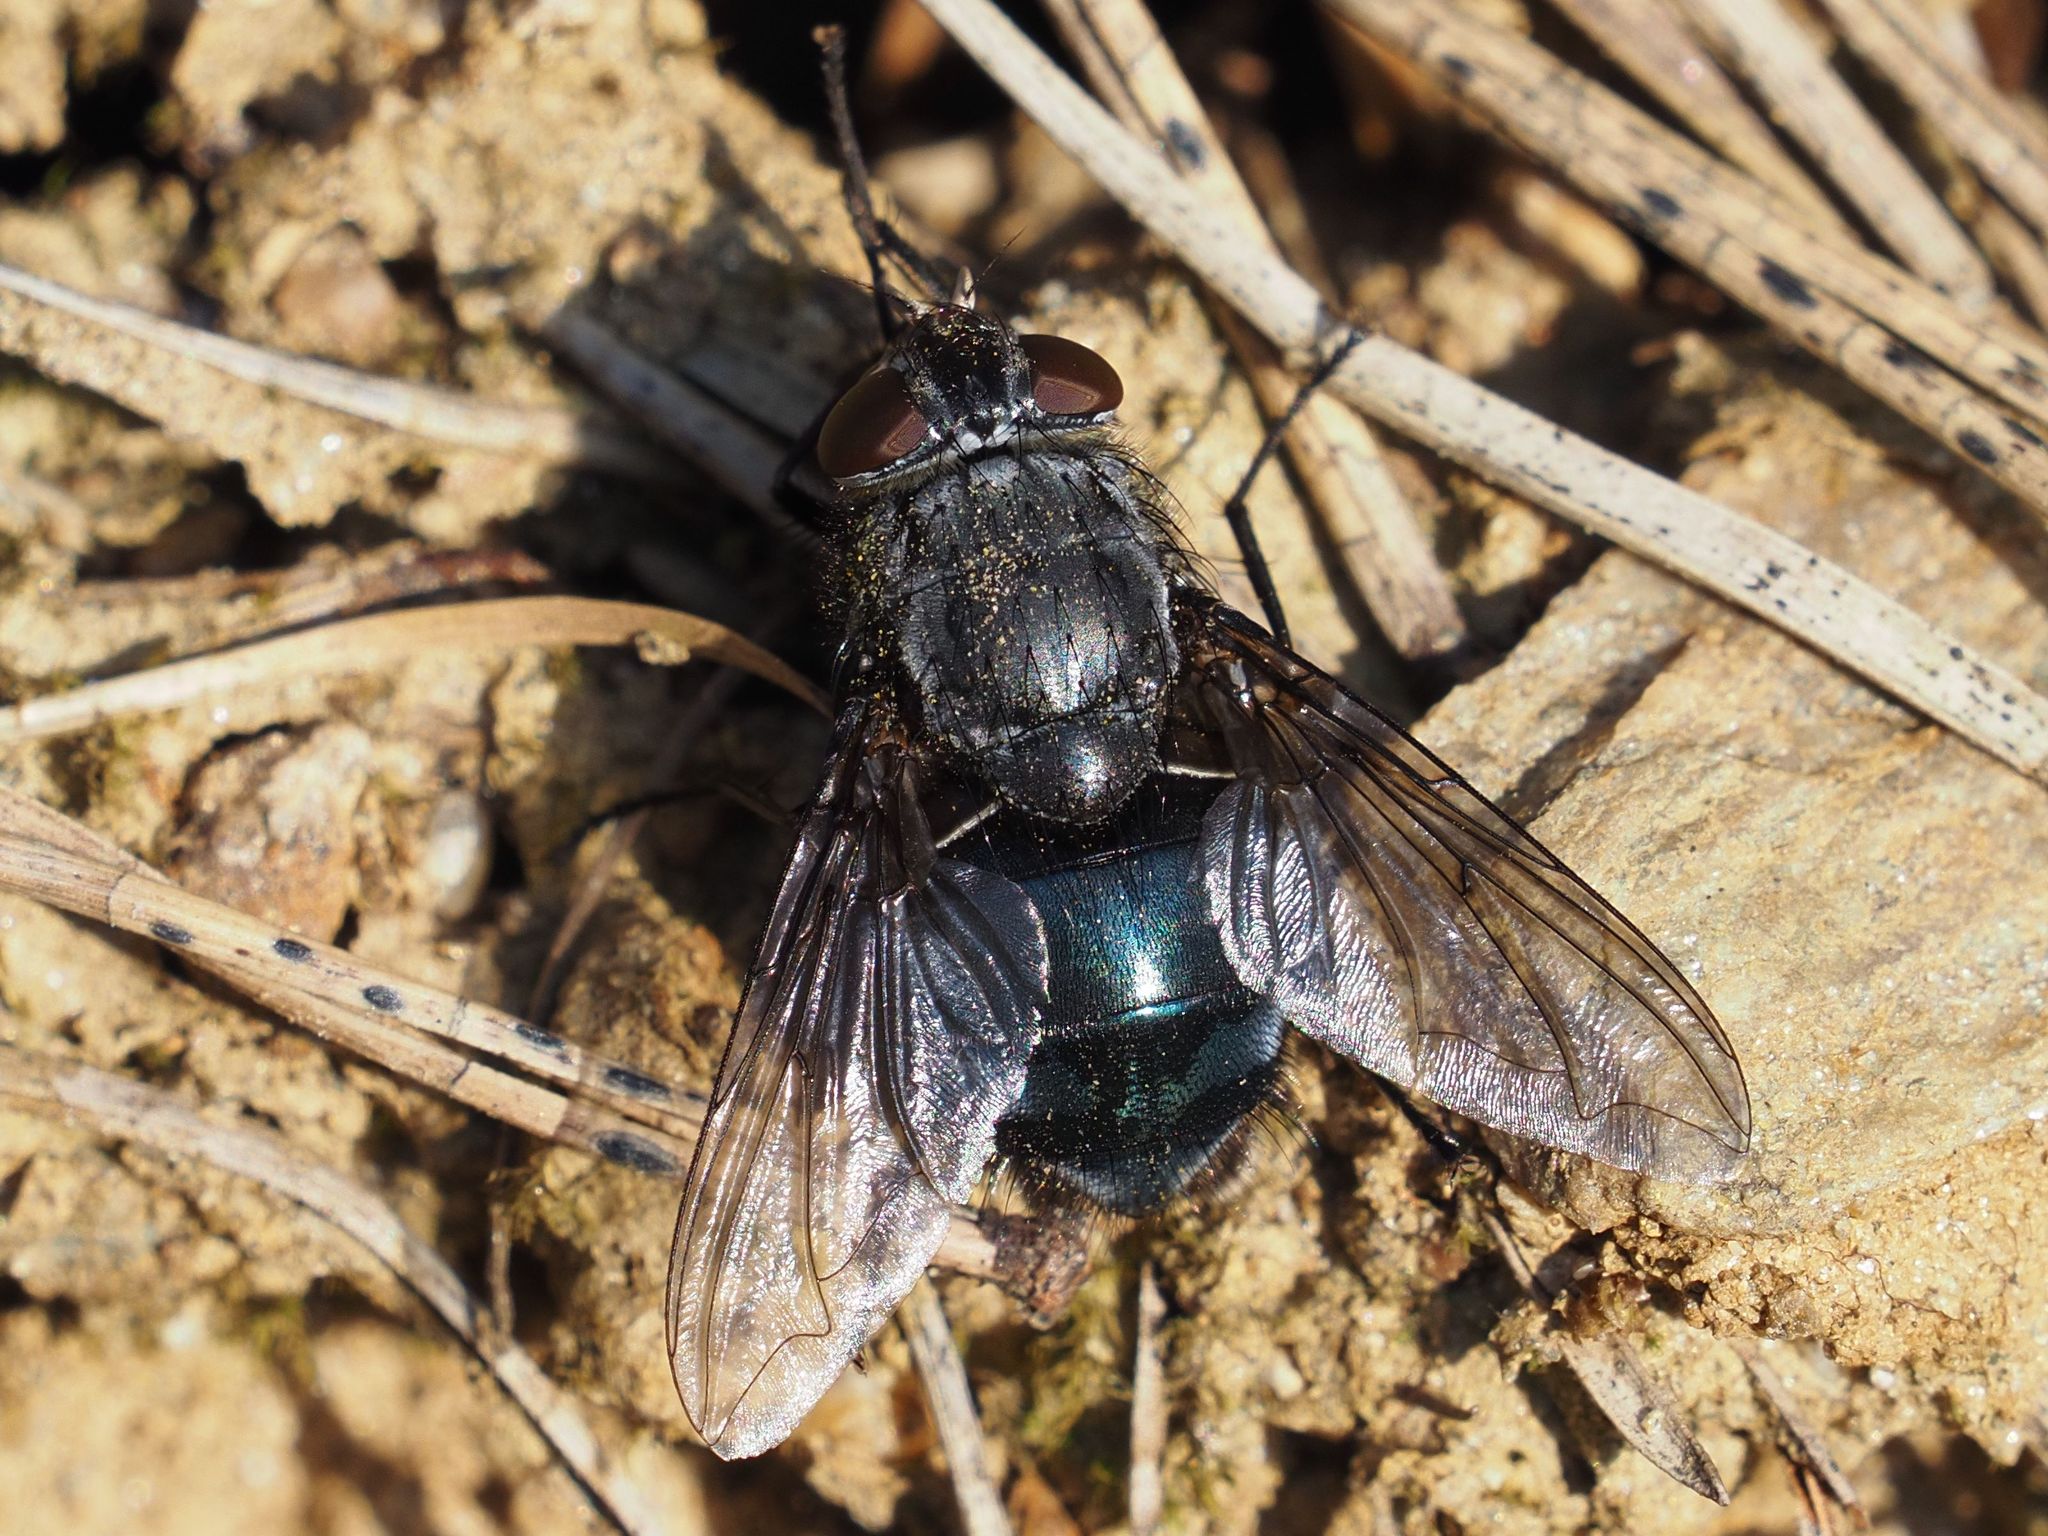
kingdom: Animalia
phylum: Arthropoda
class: Insecta
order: Diptera
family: Calliphoridae
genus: Calliphora
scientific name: Calliphora uralensis
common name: Seabird bluebottle
